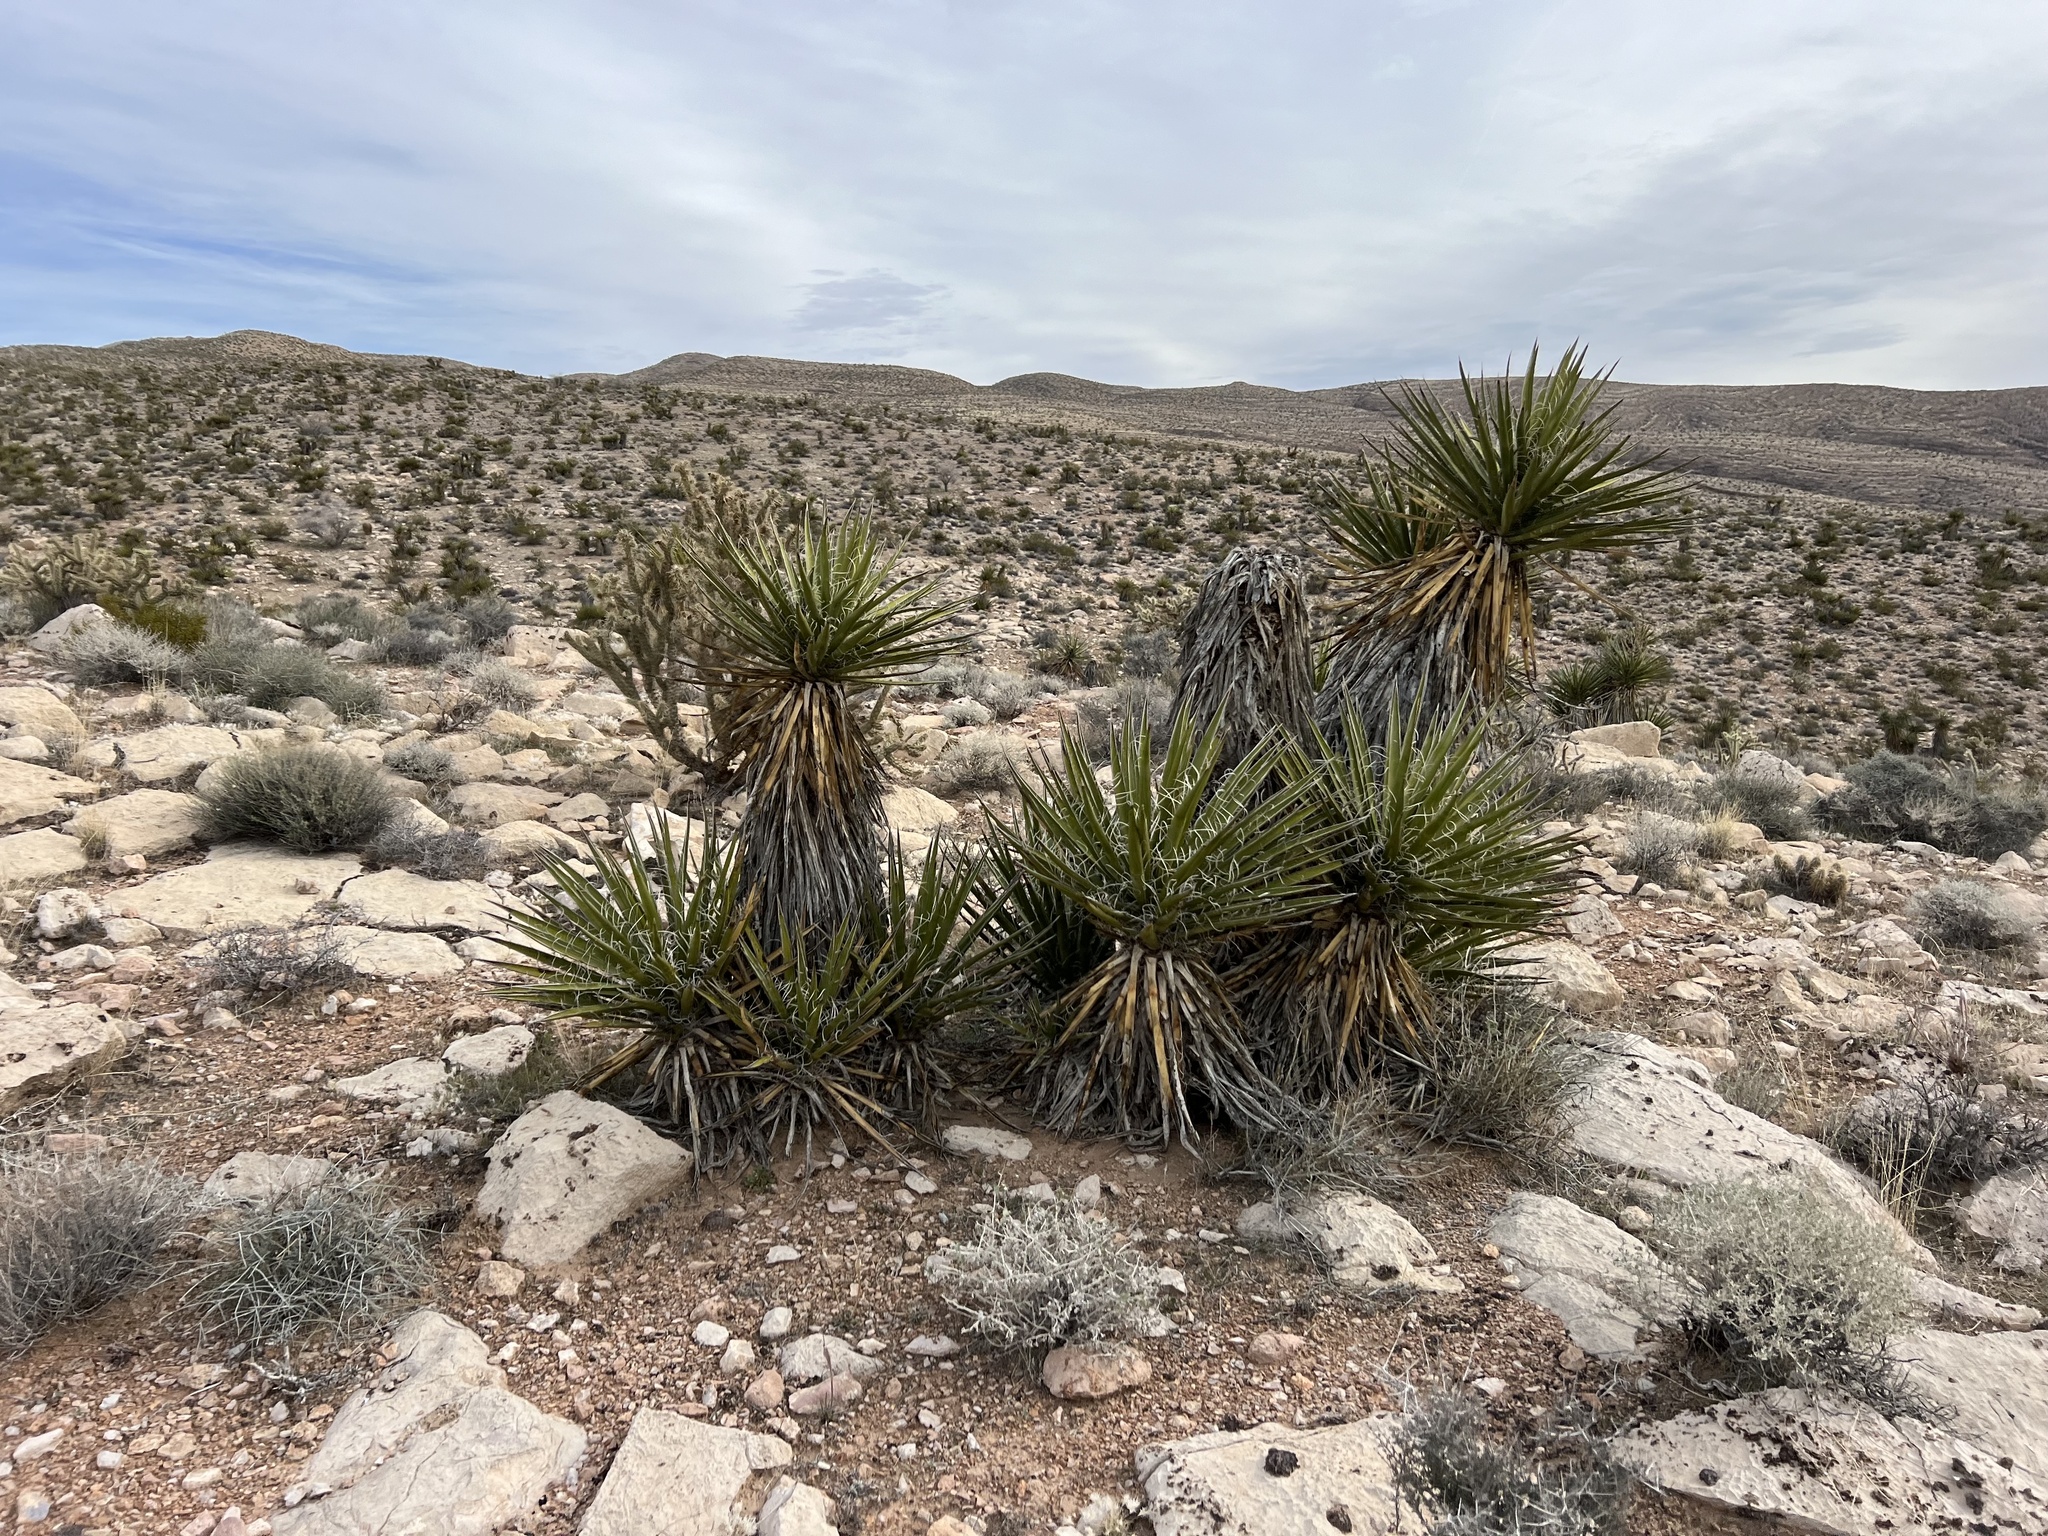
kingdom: Plantae
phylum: Tracheophyta
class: Liliopsida
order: Asparagales
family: Asparagaceae
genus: Yucca
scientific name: Yucca schidigera
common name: Mojave yucca
